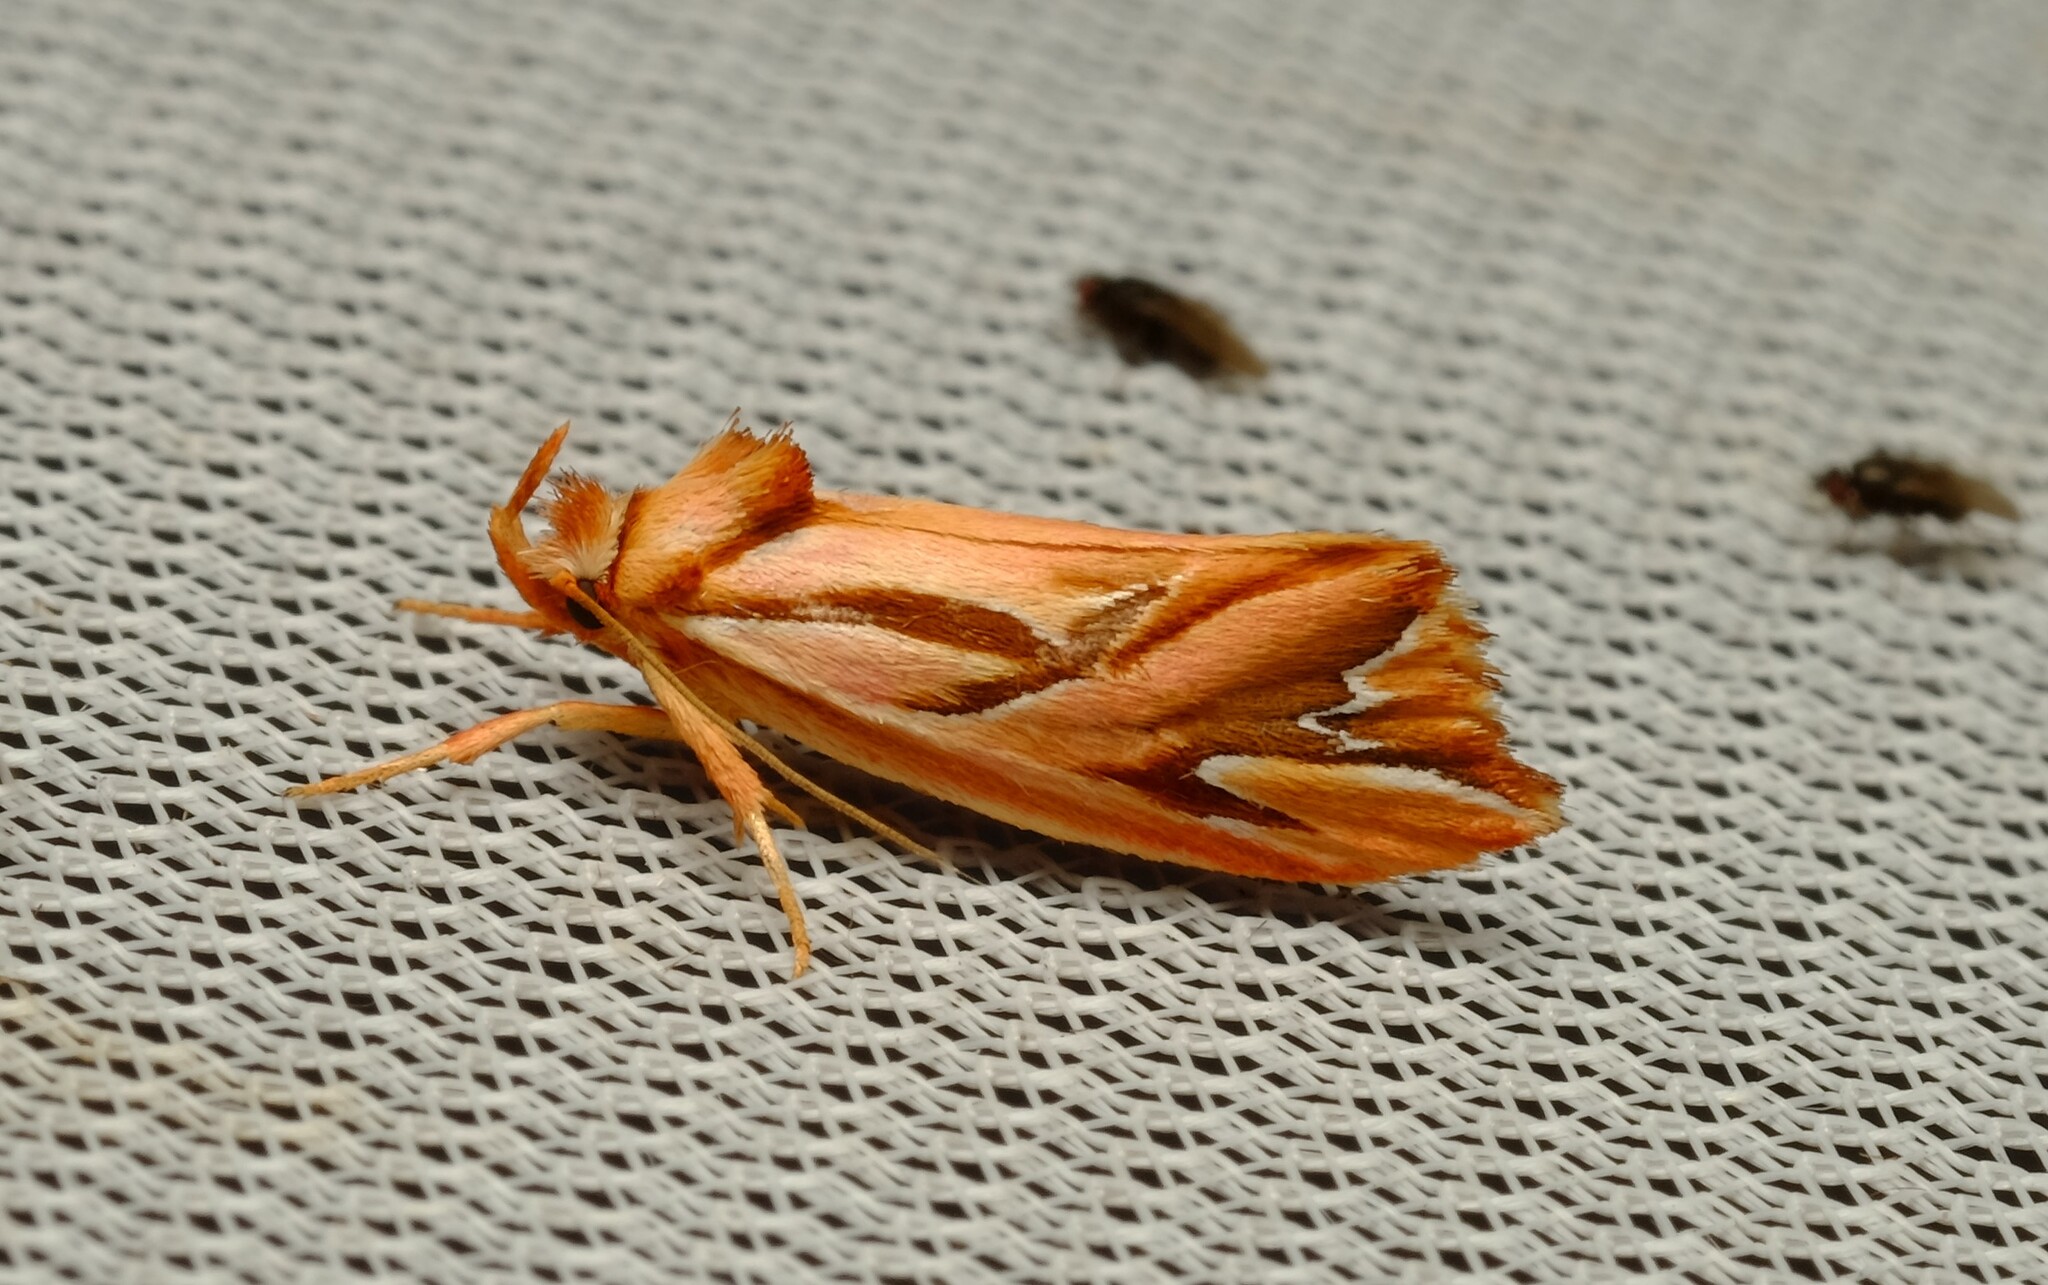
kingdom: Animalia
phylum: Arthropoda
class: Insecta
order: Lepidoptera
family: Depressariidae
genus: Eclecta
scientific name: Eclecta aurorella
